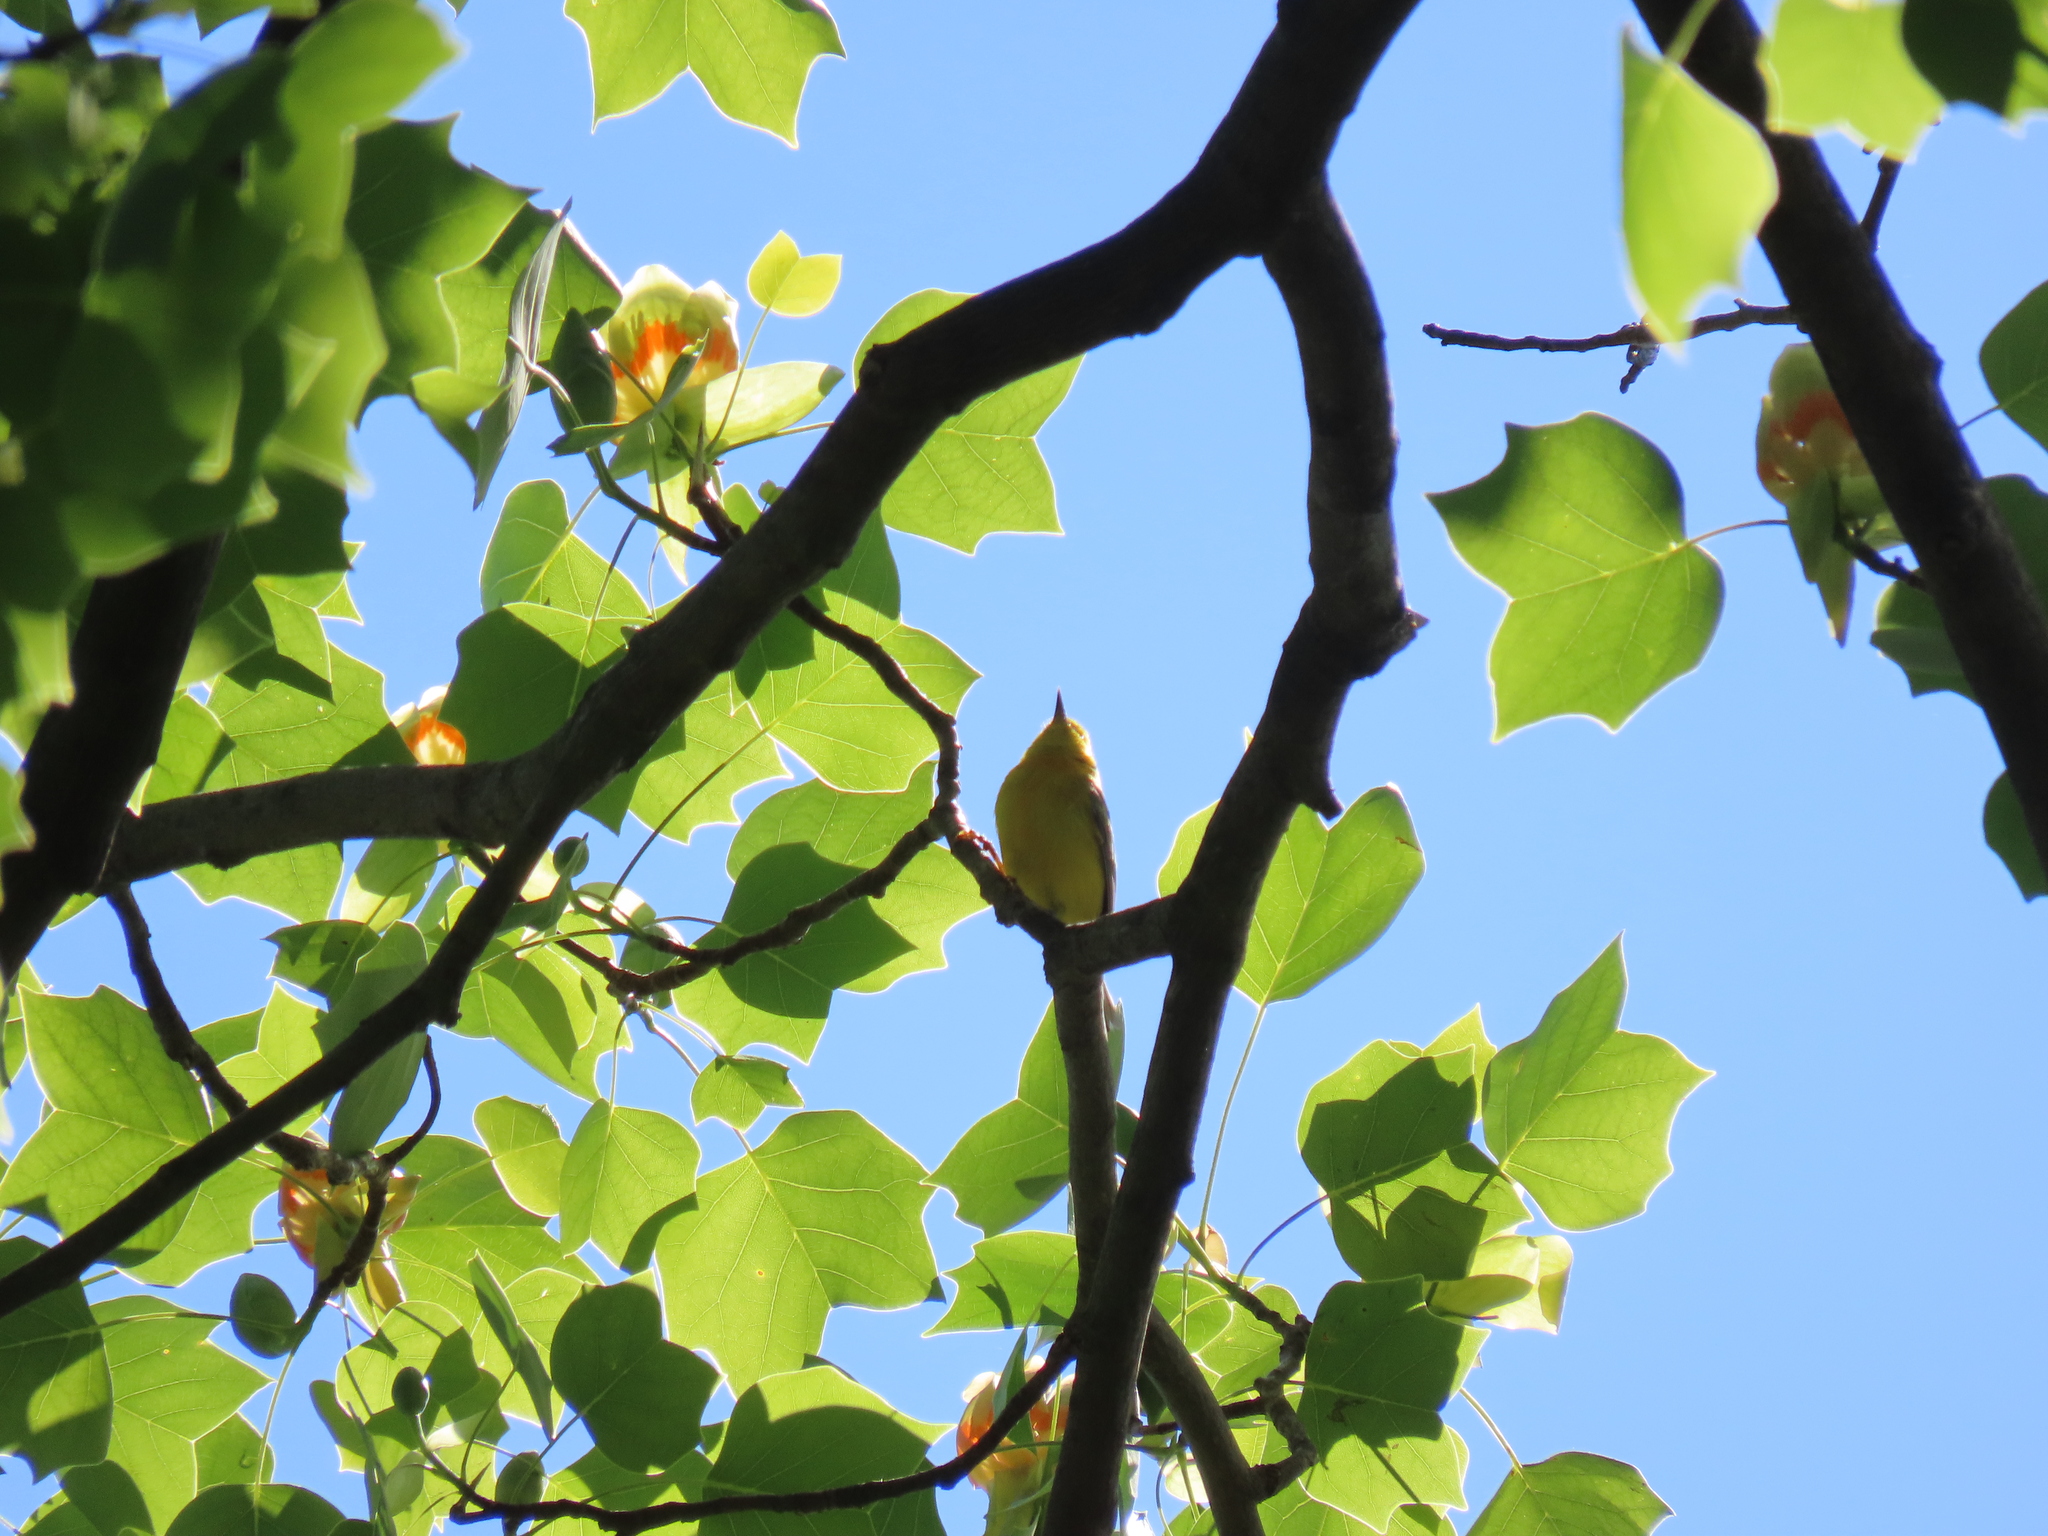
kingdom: Animalia
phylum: Chordata
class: Aves
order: Passeriformes
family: Parulidae
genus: Protonotaria
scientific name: Protonotaria citrea
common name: Prothonotary warbler
